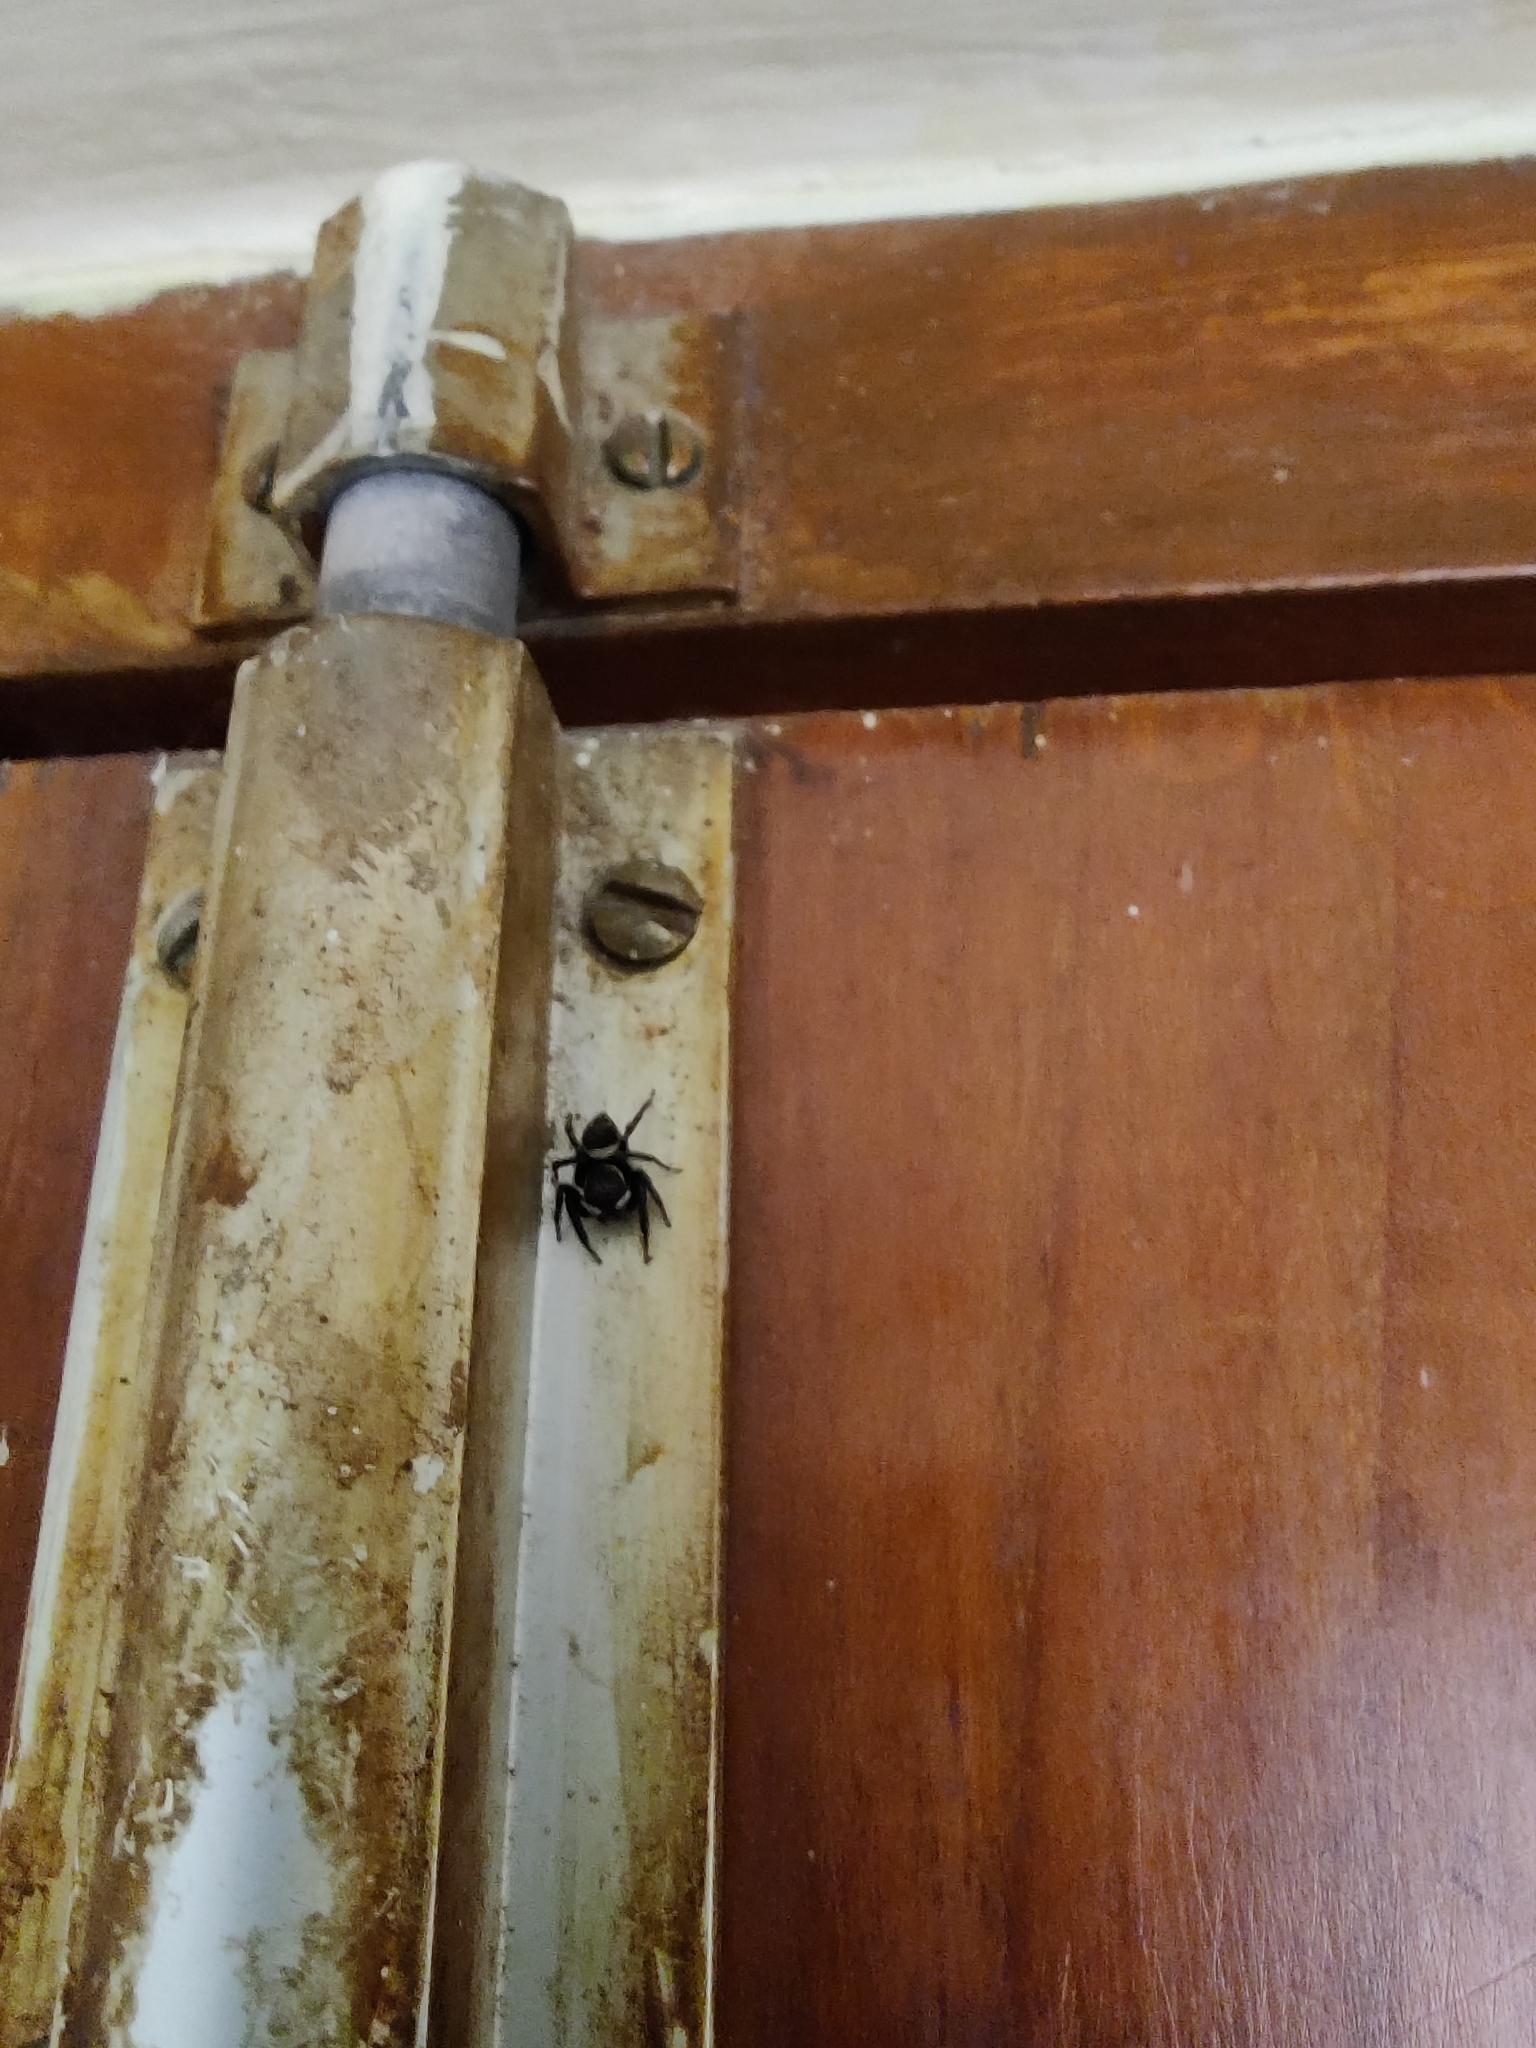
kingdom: Animalia
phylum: Arthropoda
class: Arachnida
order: Araneae
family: Salticidae
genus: Hasarius
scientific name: Hasarius adansoni
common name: Jumping spider
